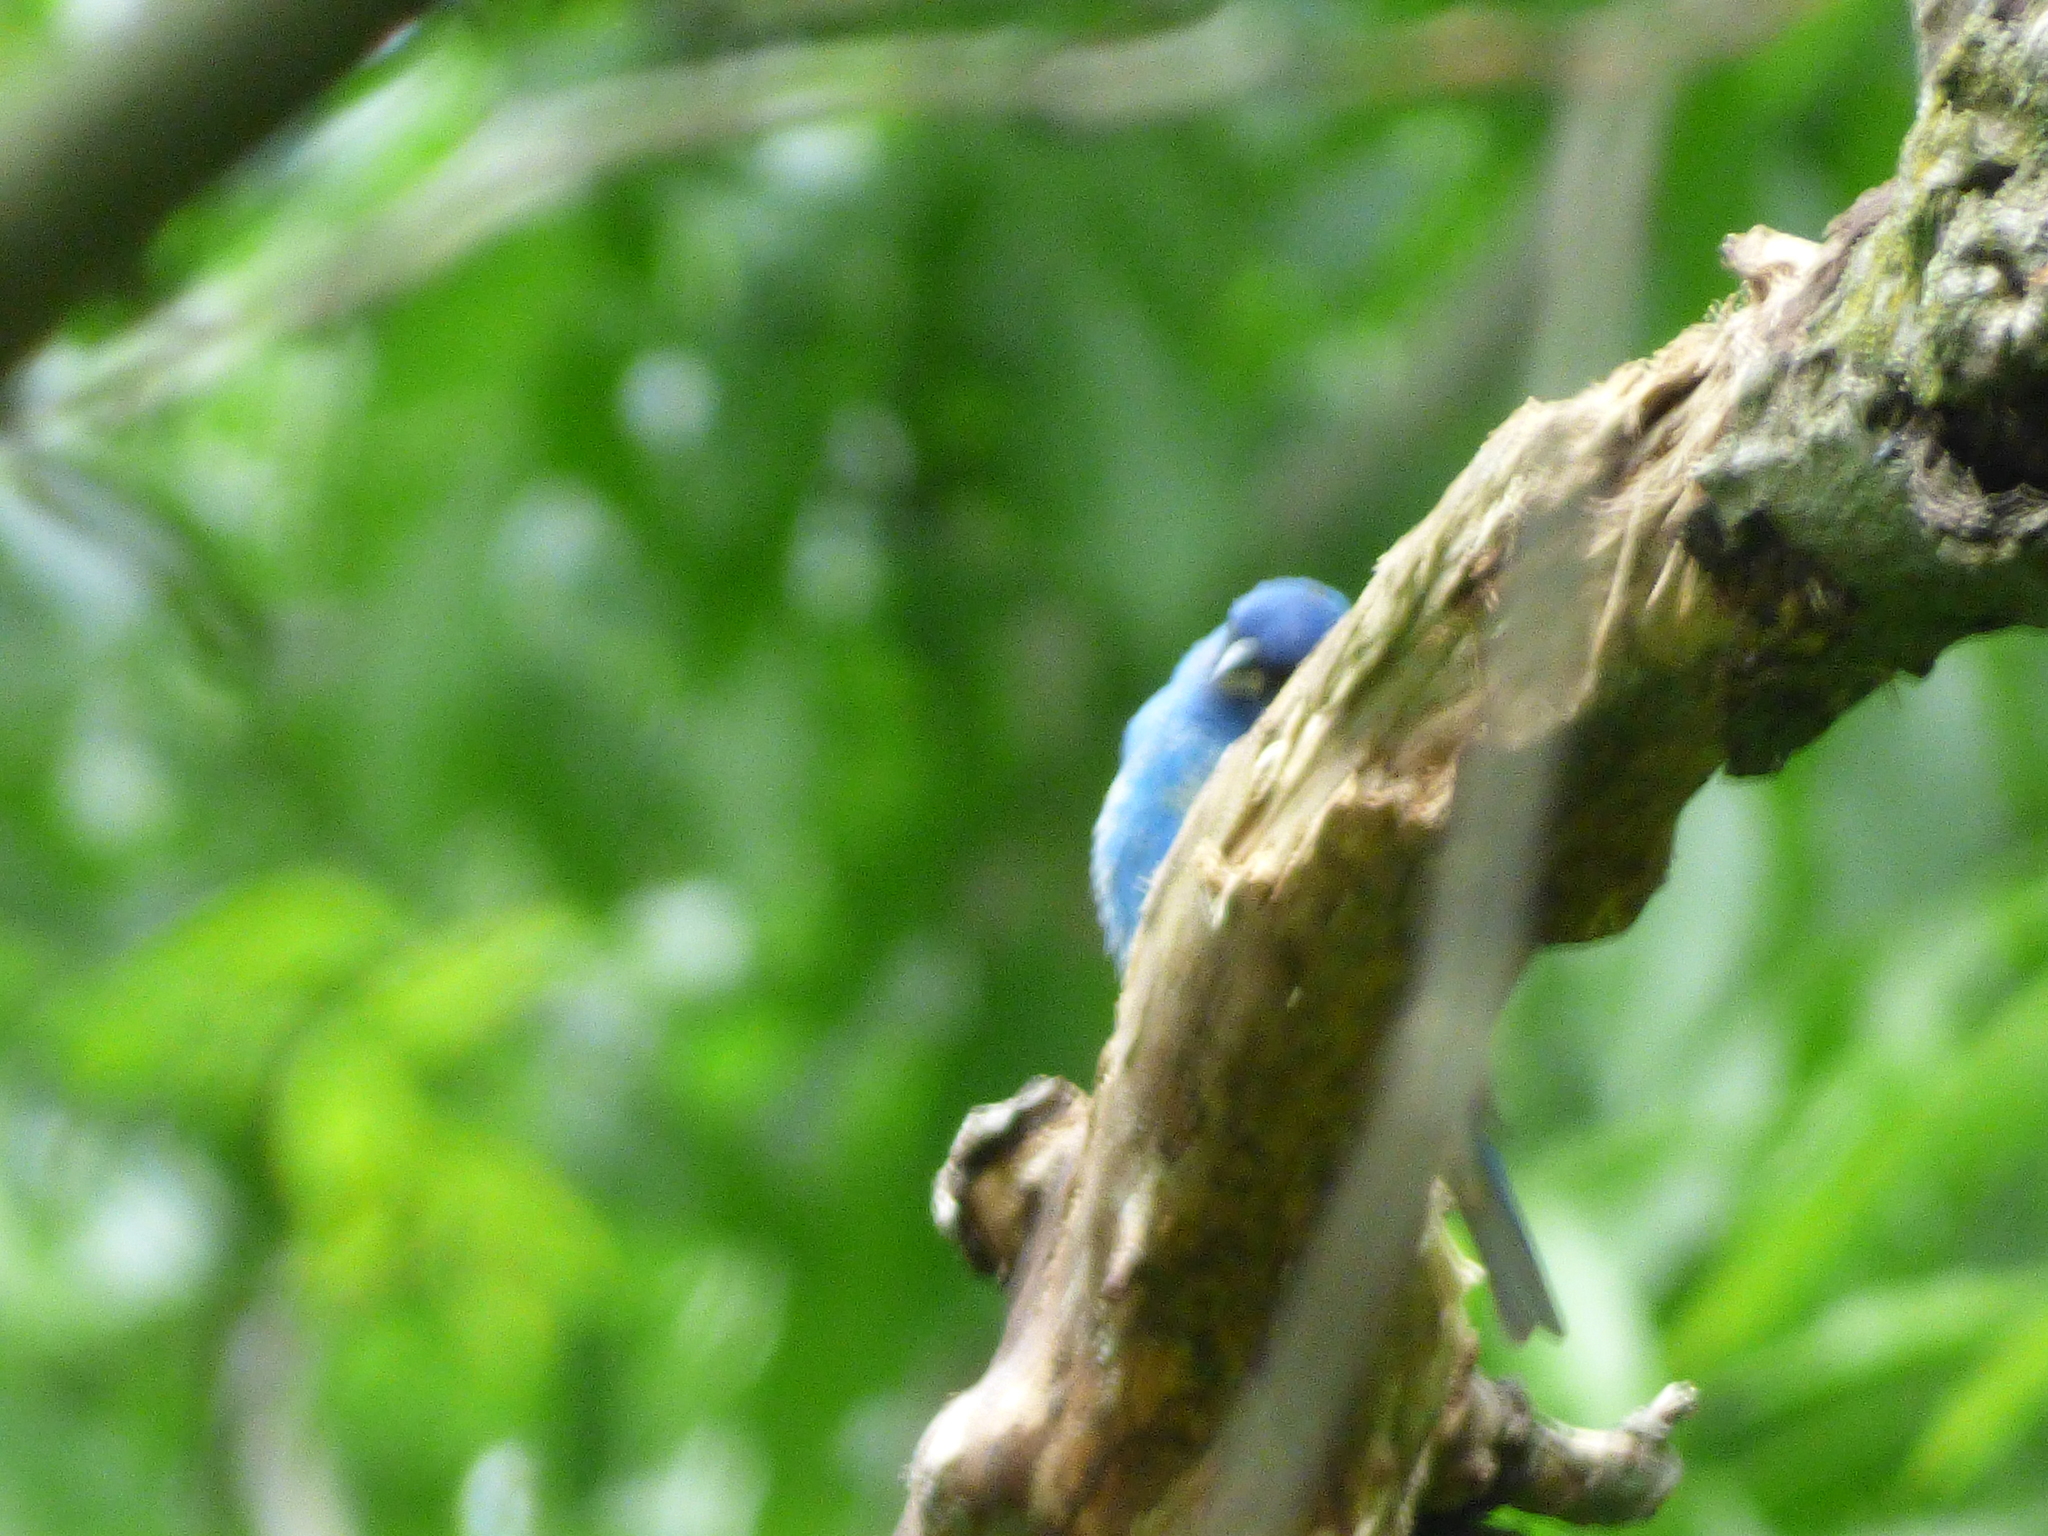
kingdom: Animalia
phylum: Chordata
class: Aves
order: Passeriformes
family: Cardinalidae
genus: Passerina
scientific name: Passerina cyanea
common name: Indigo bunting
